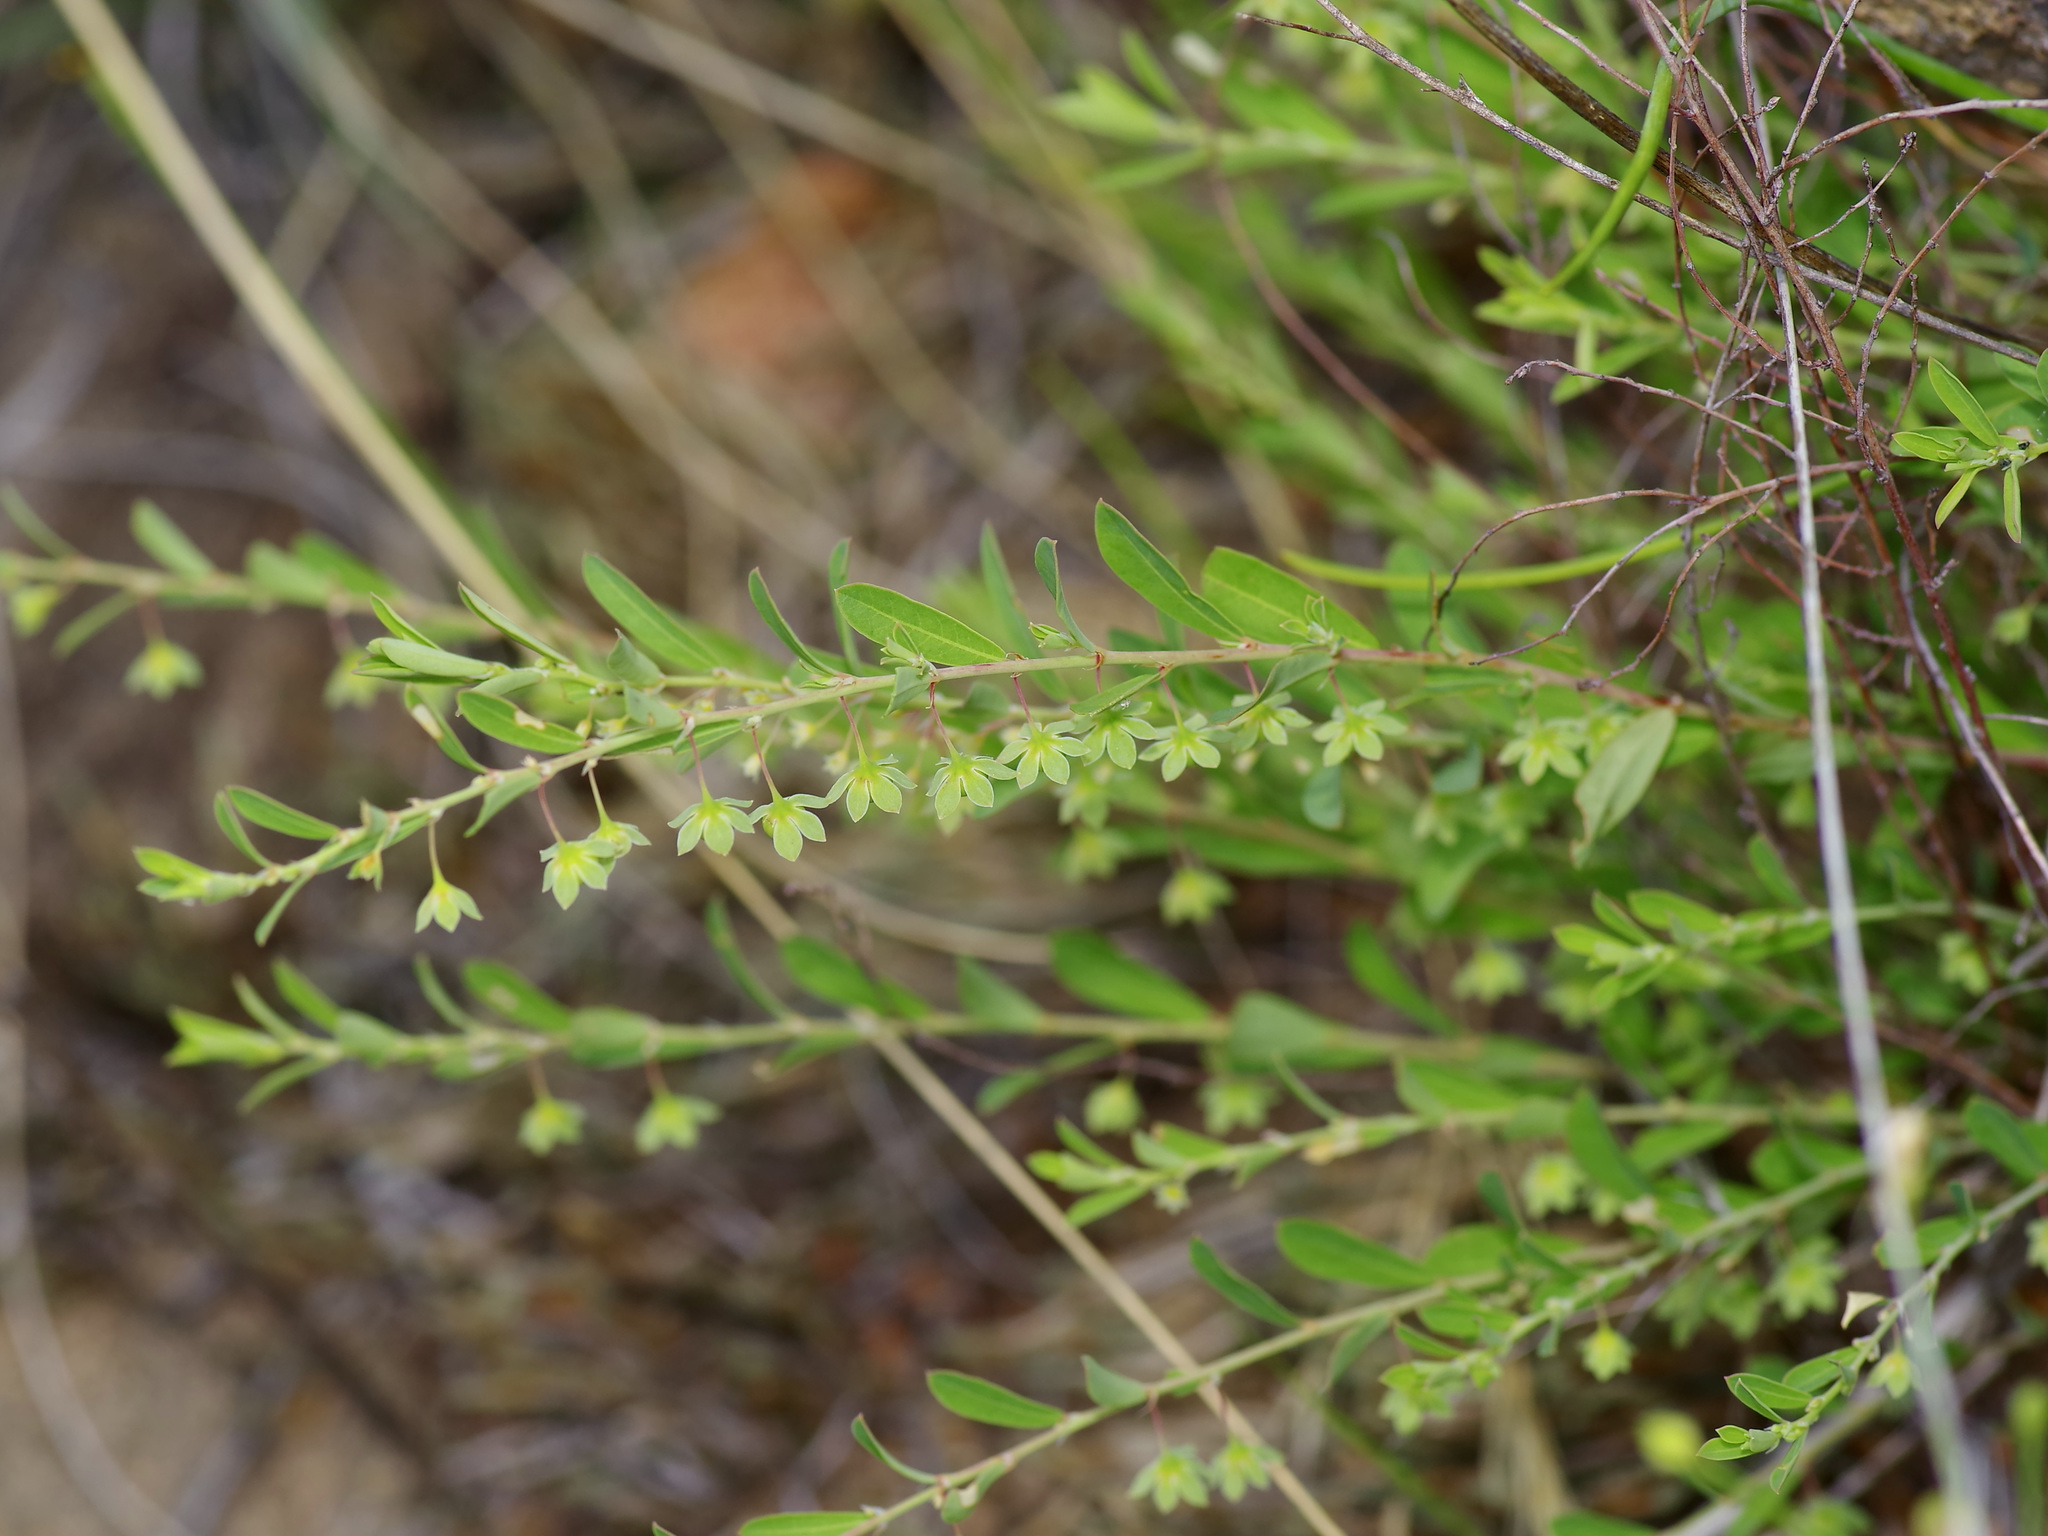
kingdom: Plantae
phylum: Tracheophyta
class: Magnoliopsida
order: Malpighiales
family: Phyllanthaceae
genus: Phyllanthus
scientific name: Phyllanthus polygonoides
